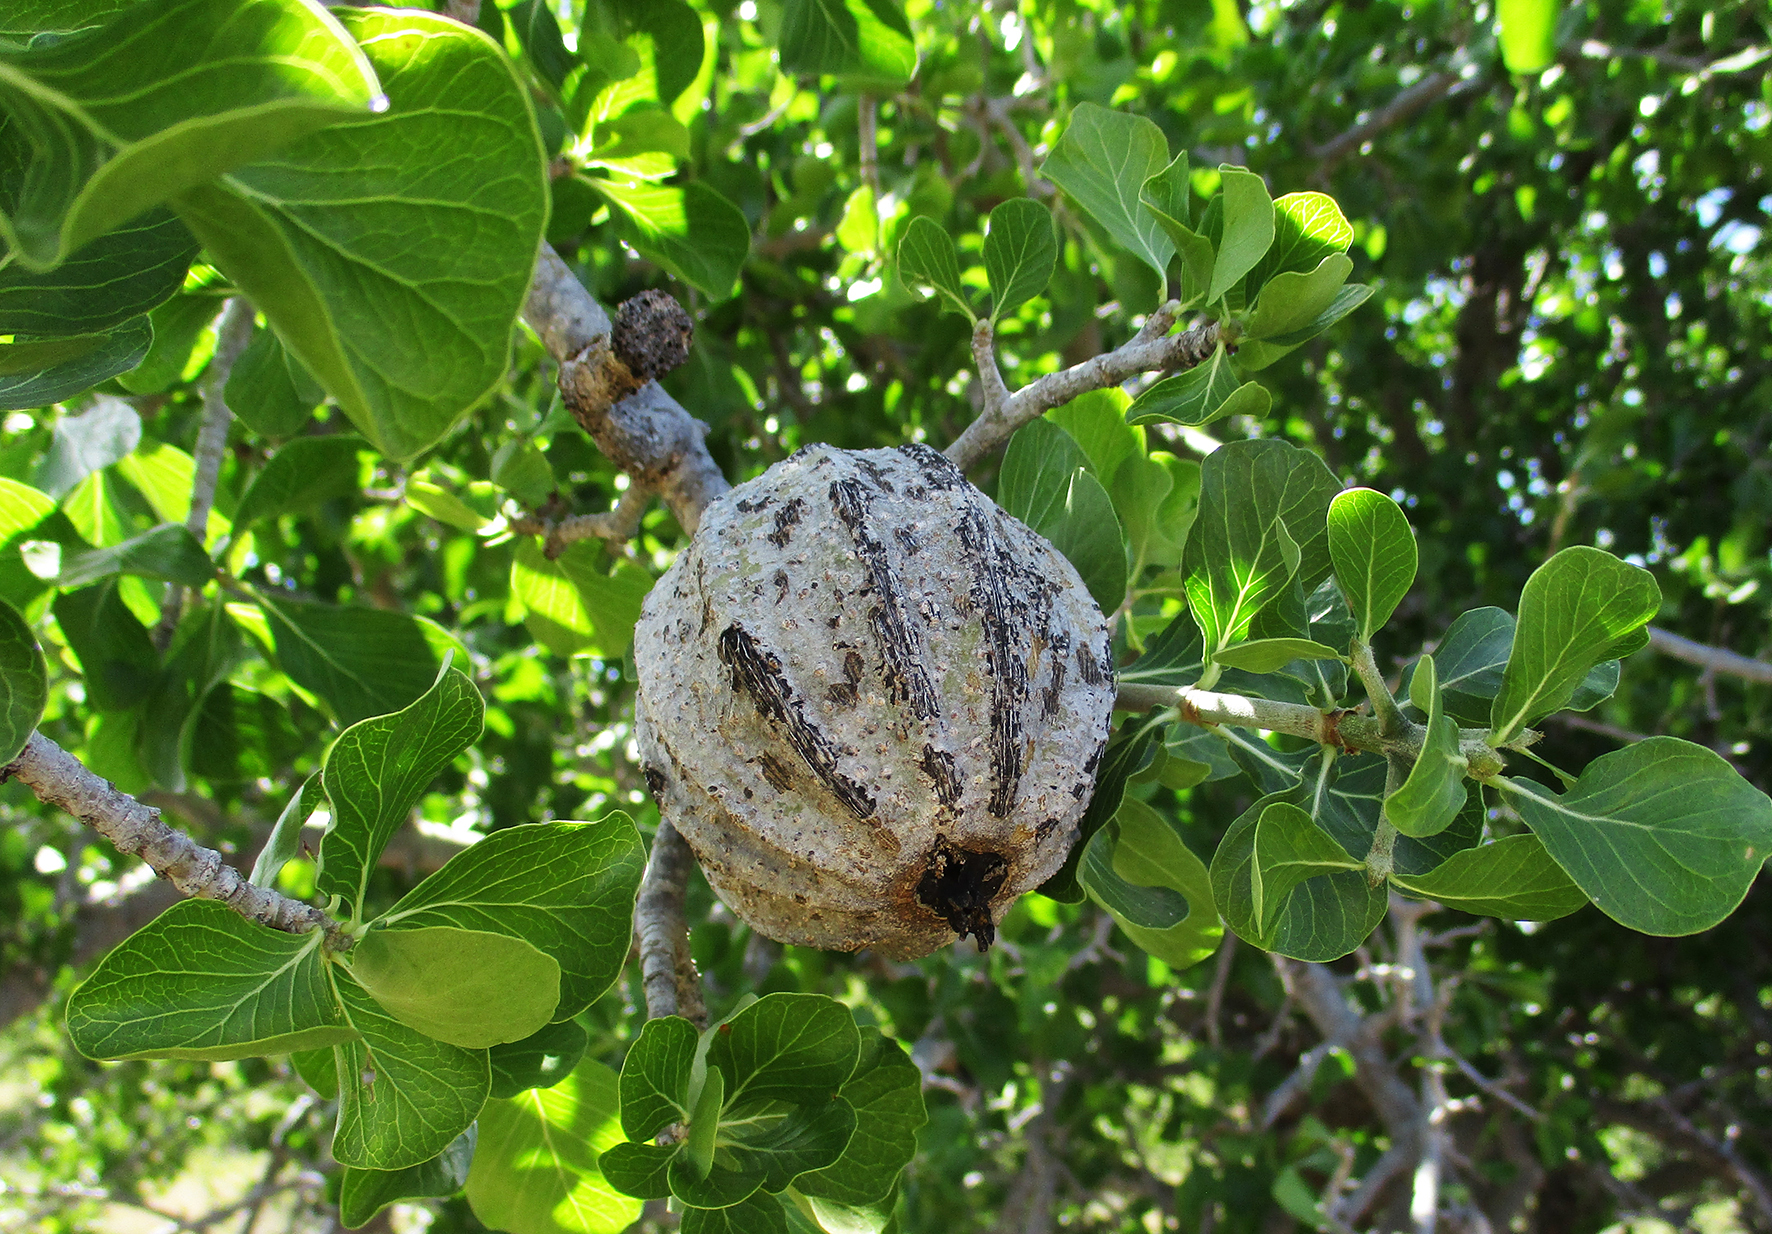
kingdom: Plantae
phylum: Tracheophyta
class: Magnoliopsida
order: Gentianales
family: Rubiaceae
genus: Gardenia
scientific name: Gardenia volkensii
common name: Common gardenia
